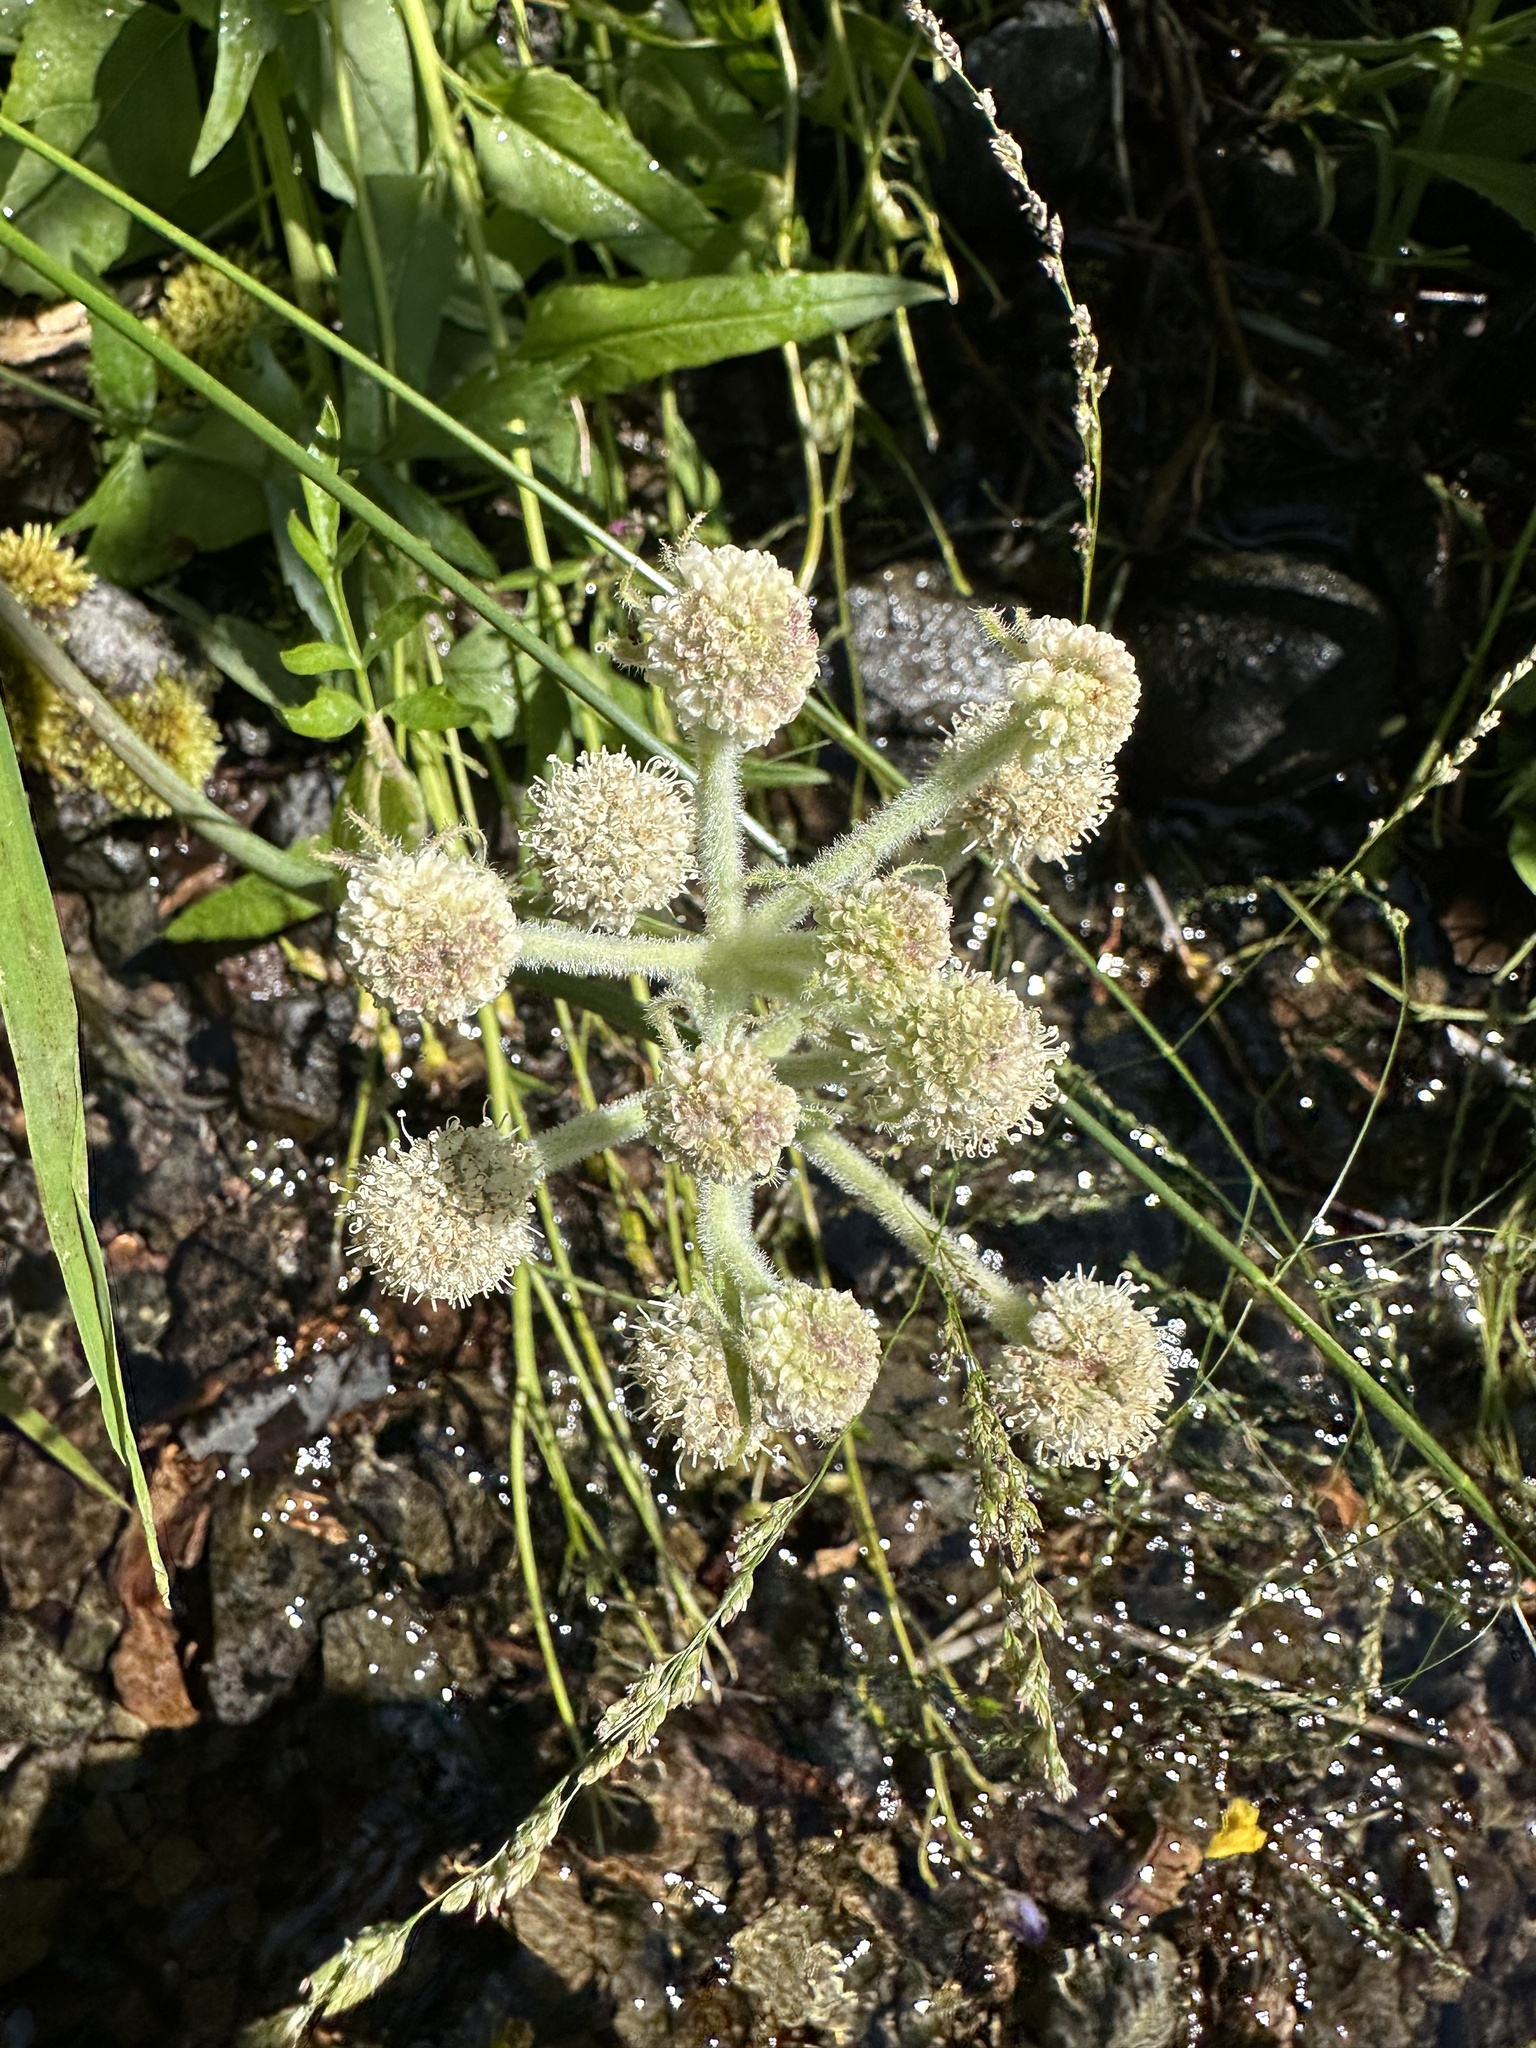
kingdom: Plantae
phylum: Tracheophyta
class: Magnoliopsida
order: Apiales
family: Apiaceae
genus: Angelica
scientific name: Angelica capitellata
